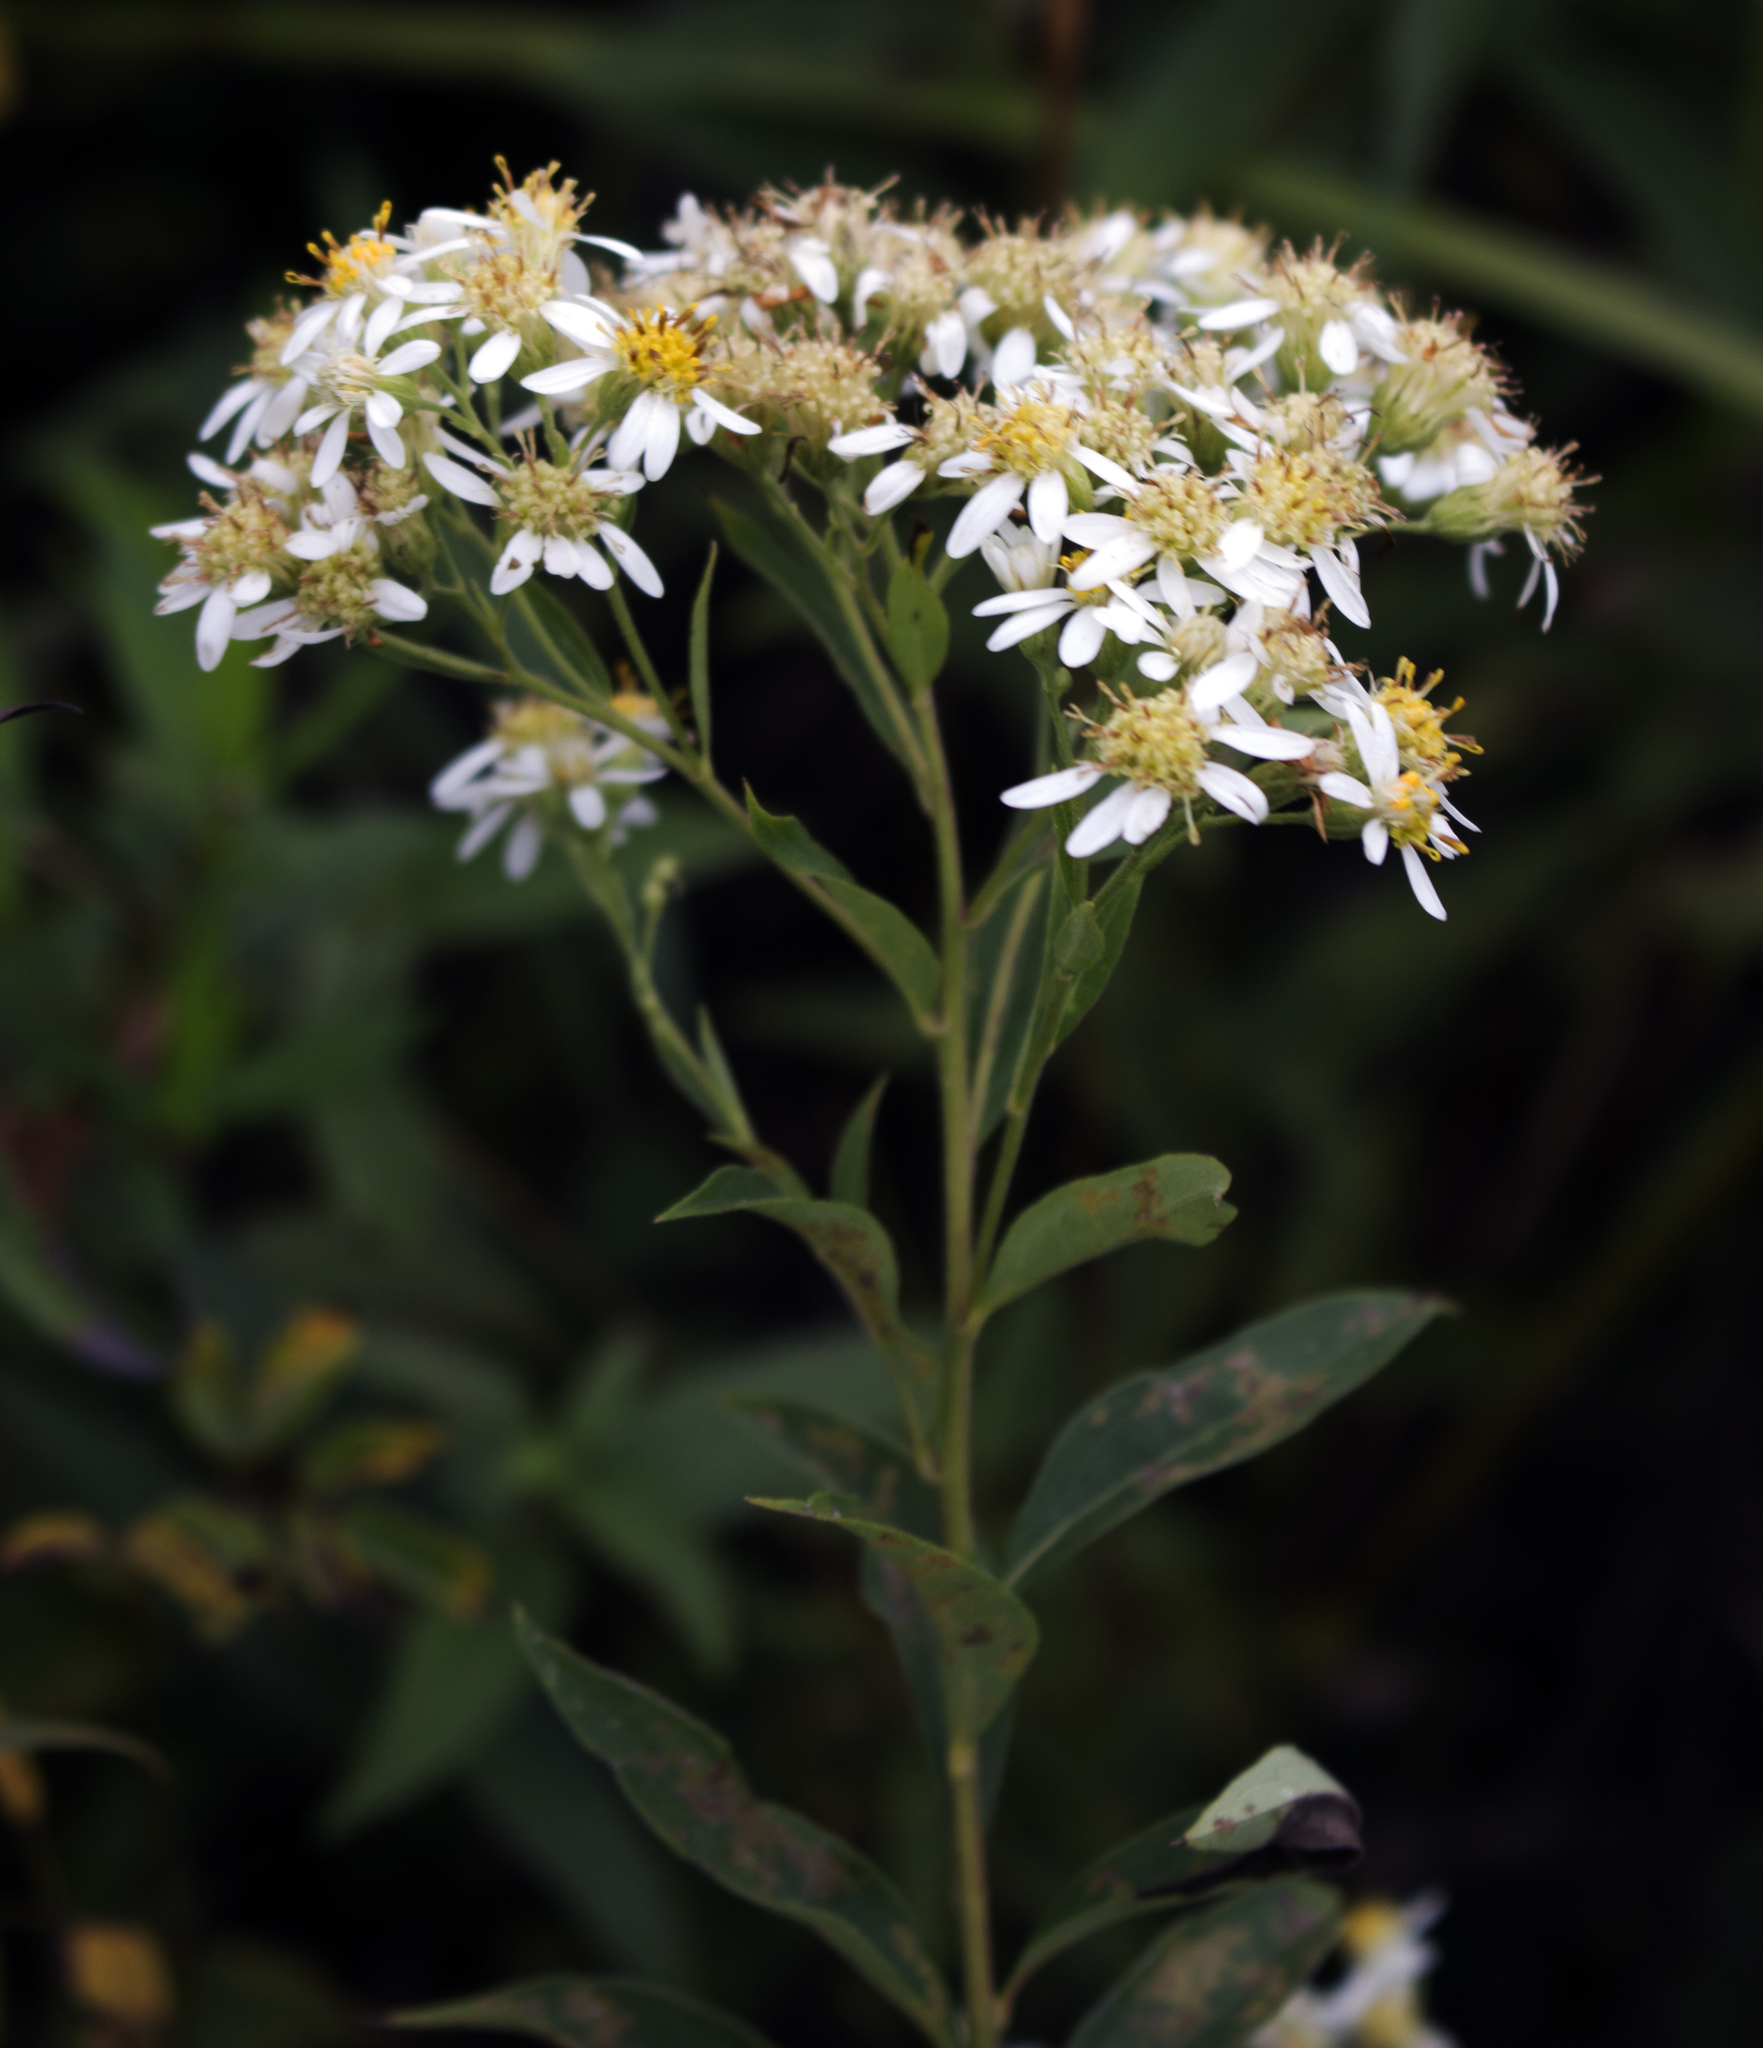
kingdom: Plantae
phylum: Tracheophyta
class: Magnoliopsida
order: Asterales
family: Asteraceae
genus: Doellingeria
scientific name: Doellingeria umbellata
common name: Flat-top white aster
